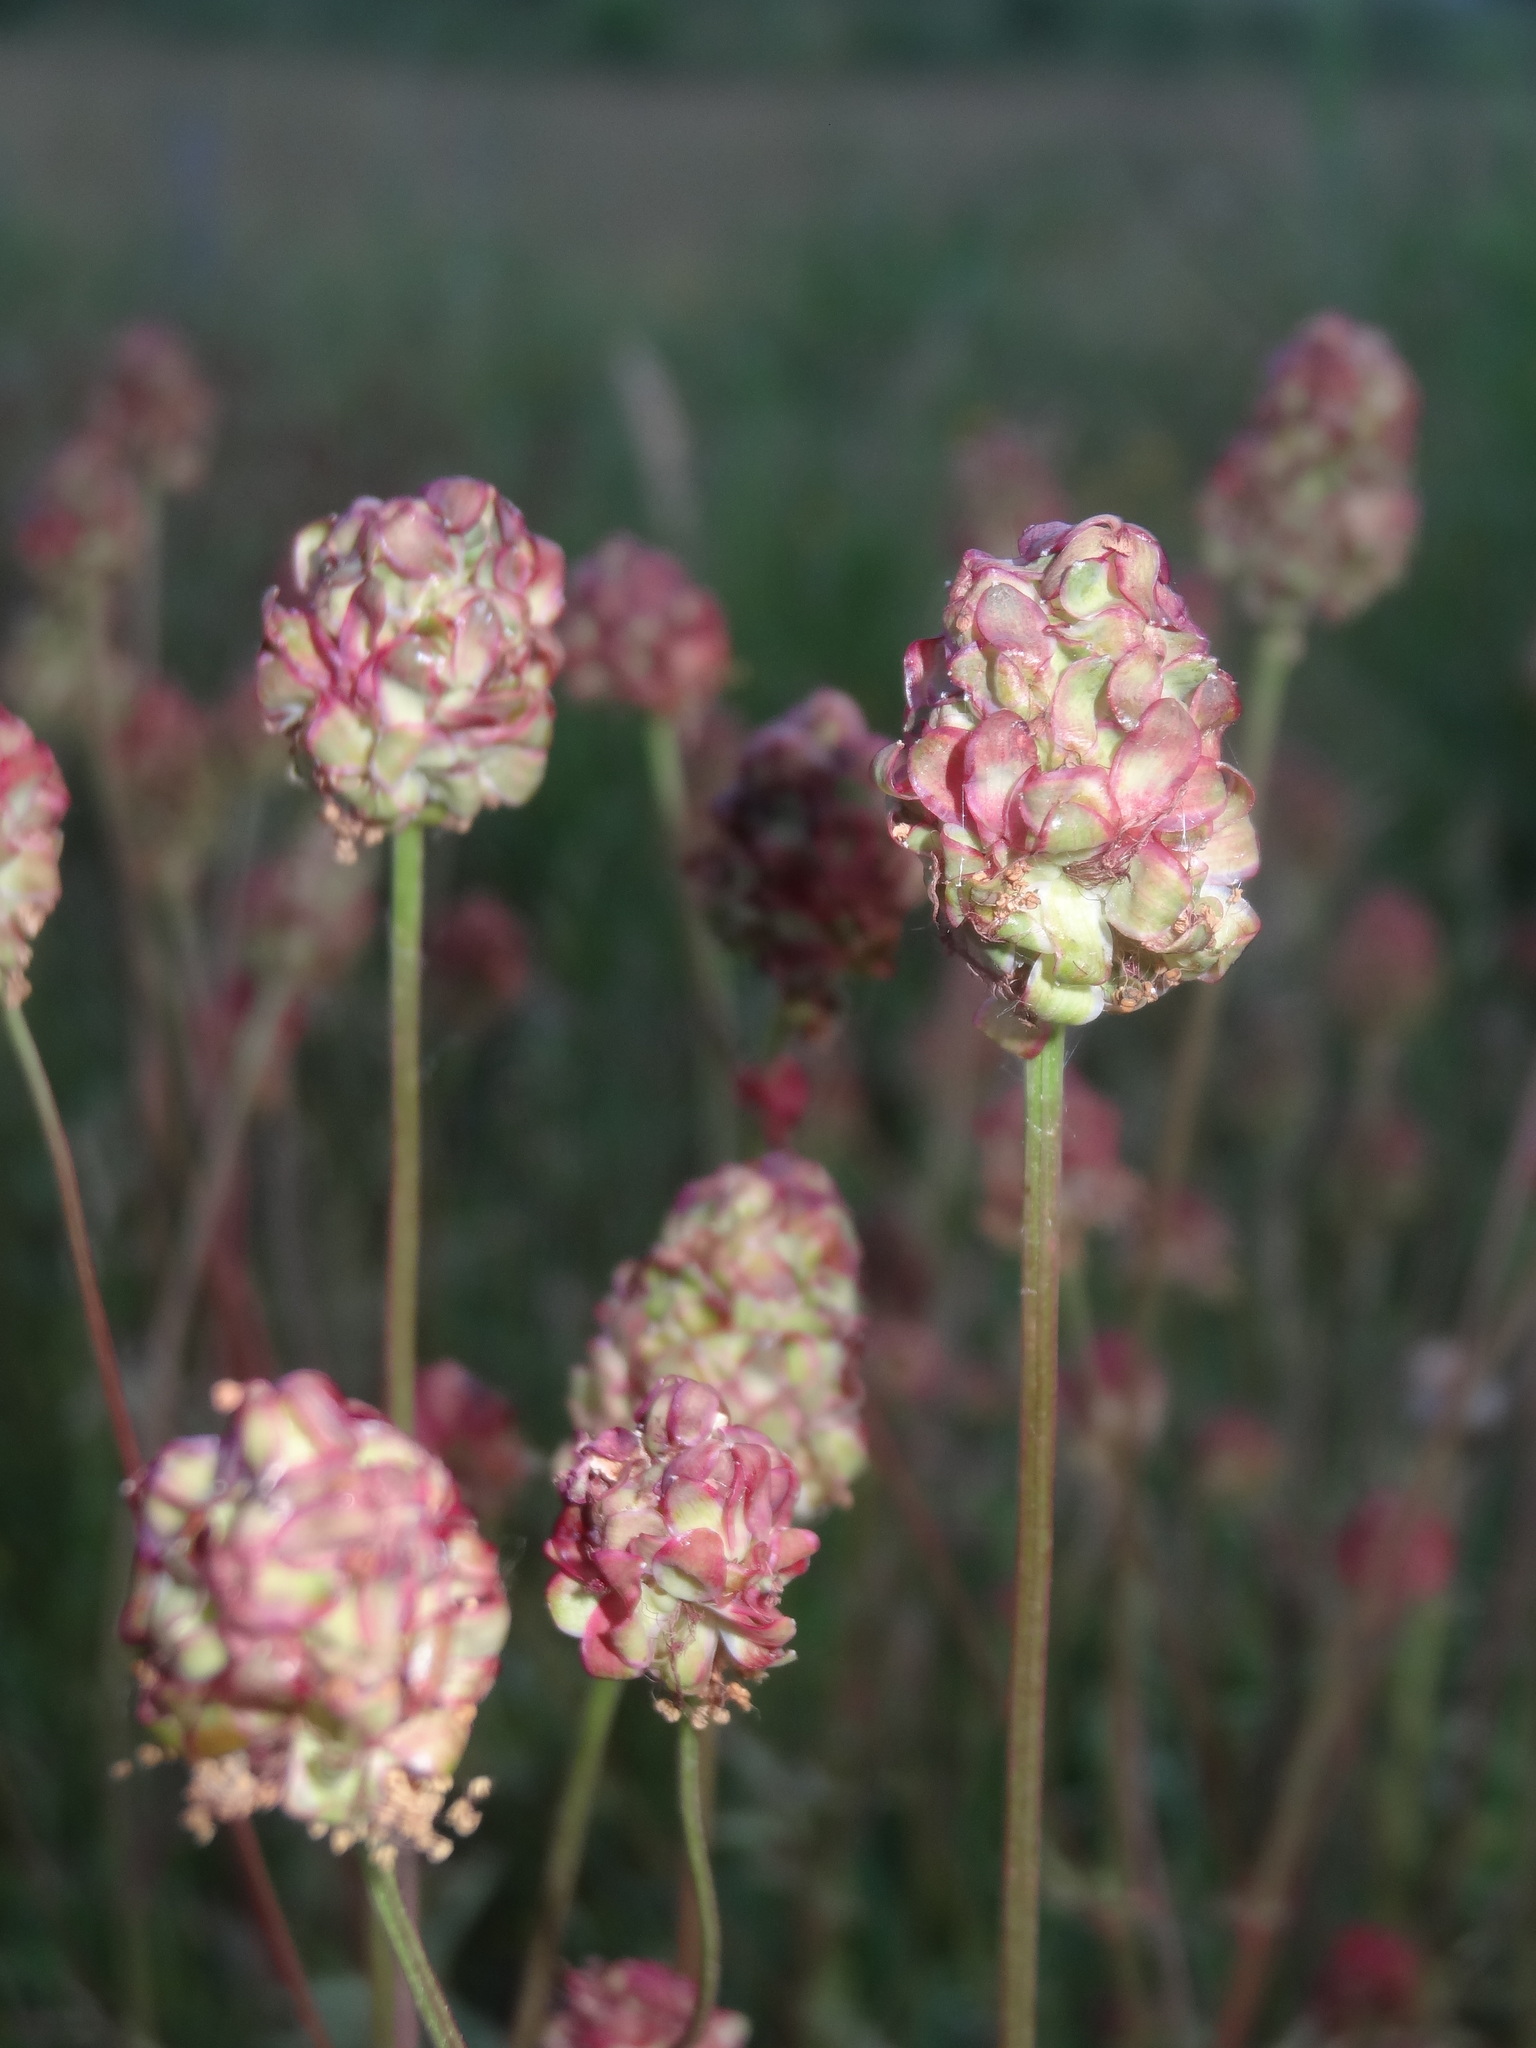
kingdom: Plantae
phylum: Tracheophyta
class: Magnoliopsida
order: Rosales
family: Rosaceae
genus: Poterium
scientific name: Poterium sanguisorba
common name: Salad burnet
